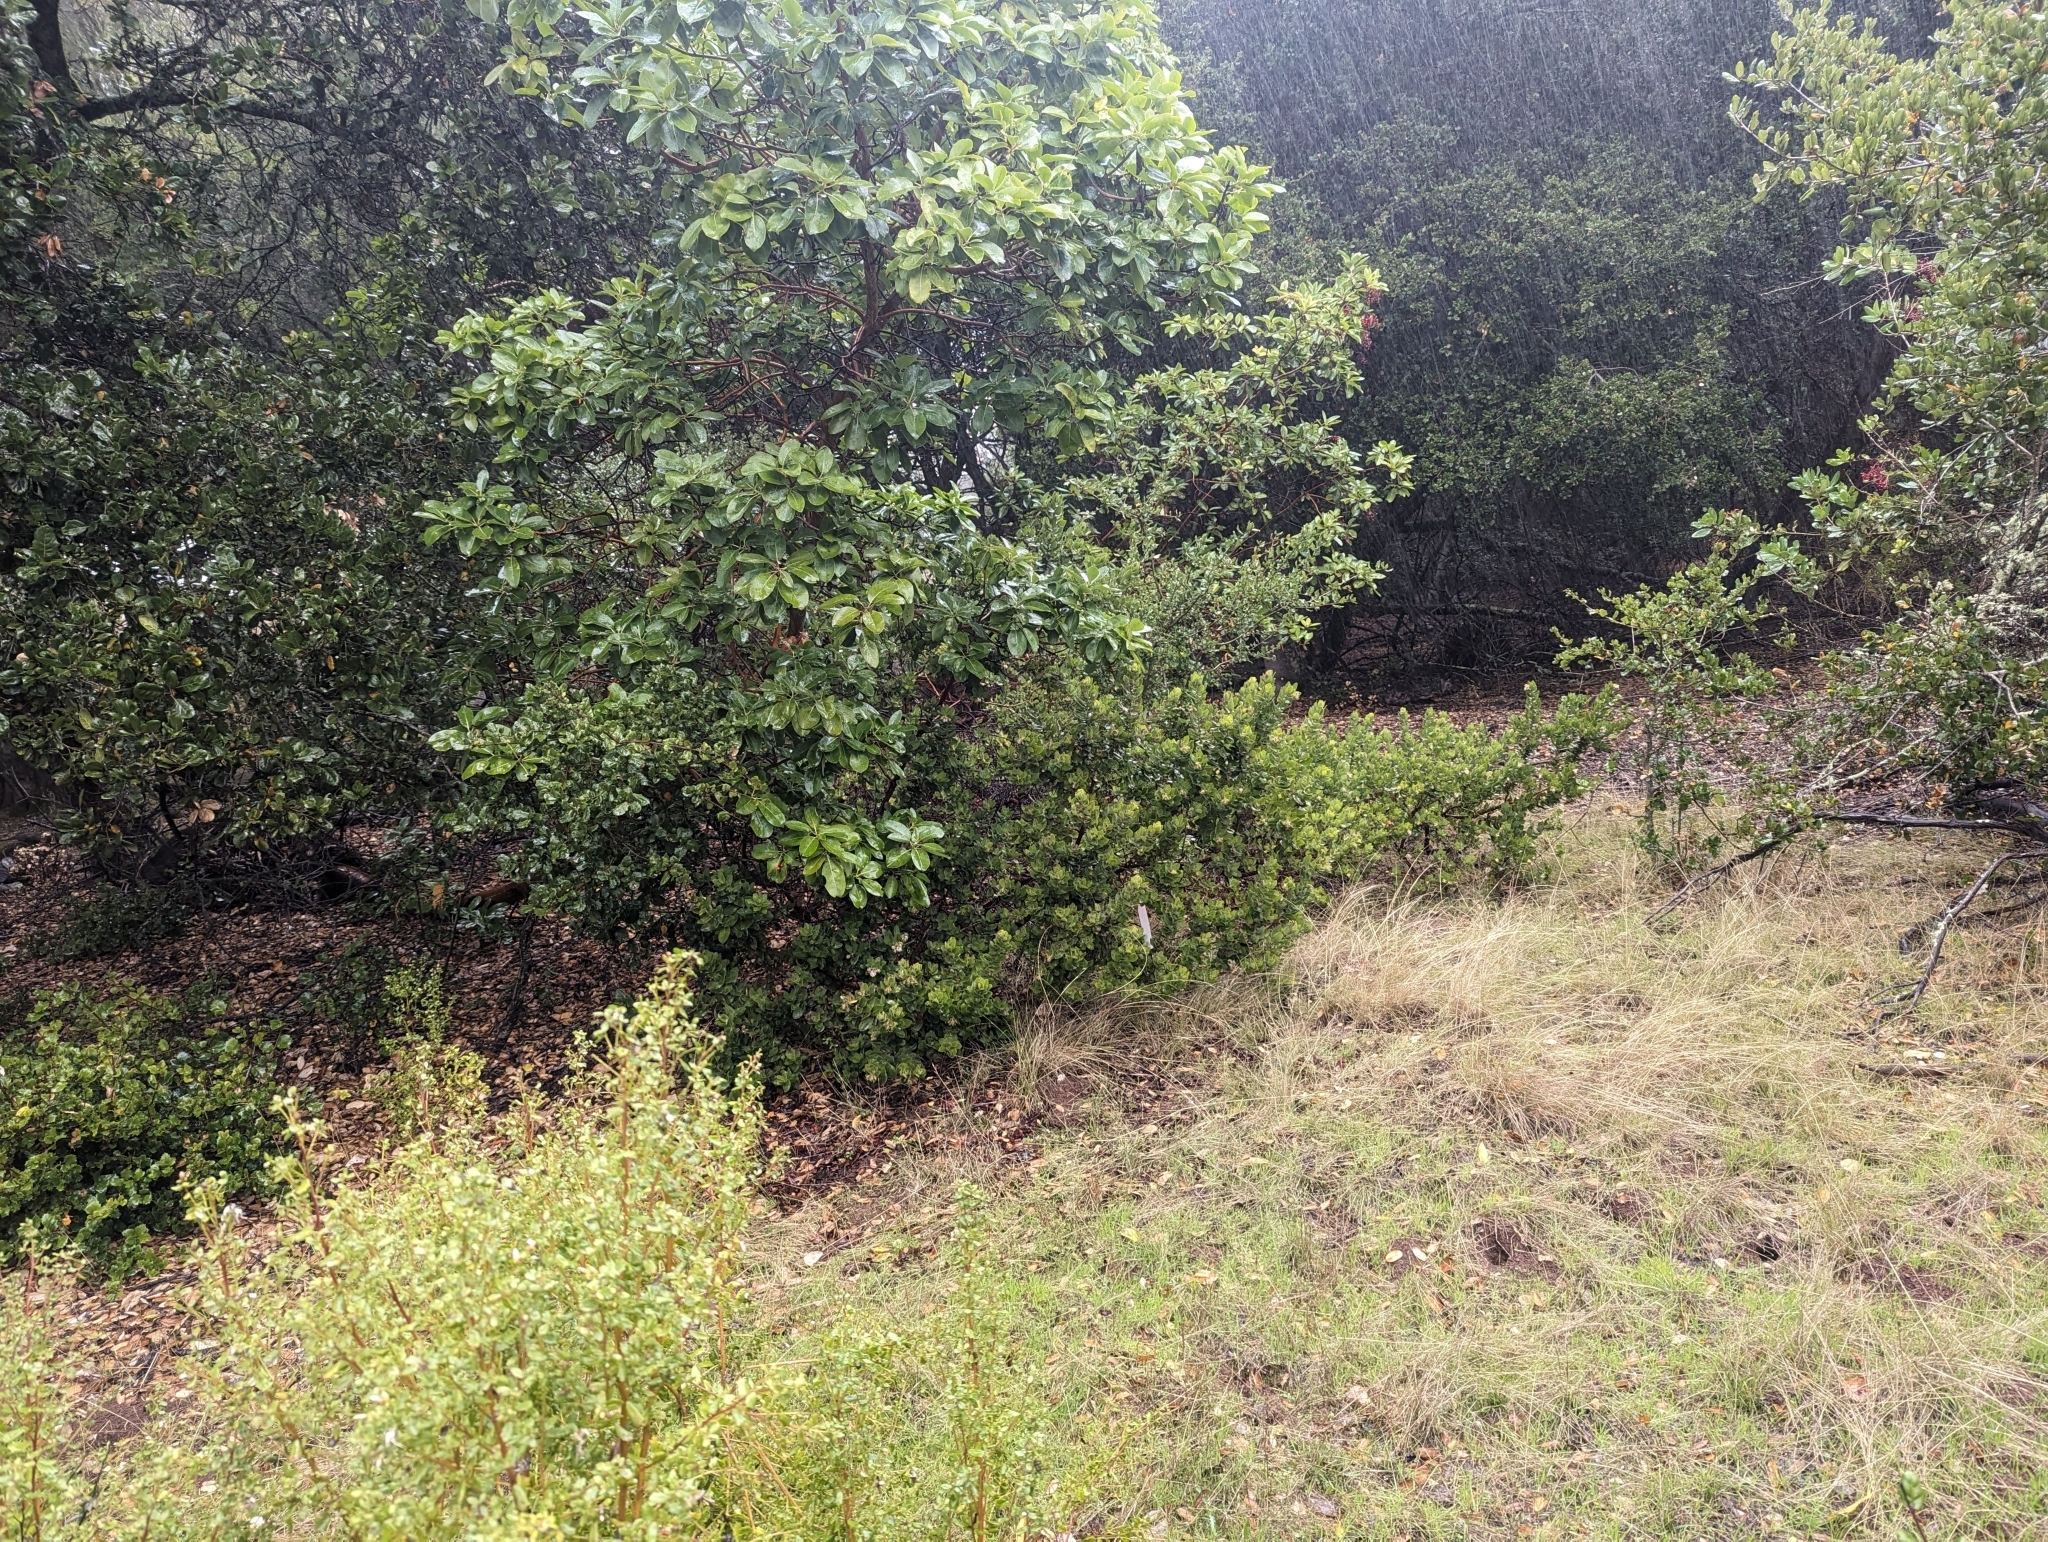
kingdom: Plantae
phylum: Tracheophyta
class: Magnoliopsida
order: Ericales
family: Ericaceae
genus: Arctostaphylos
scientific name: Arctostaphylos regismontana
